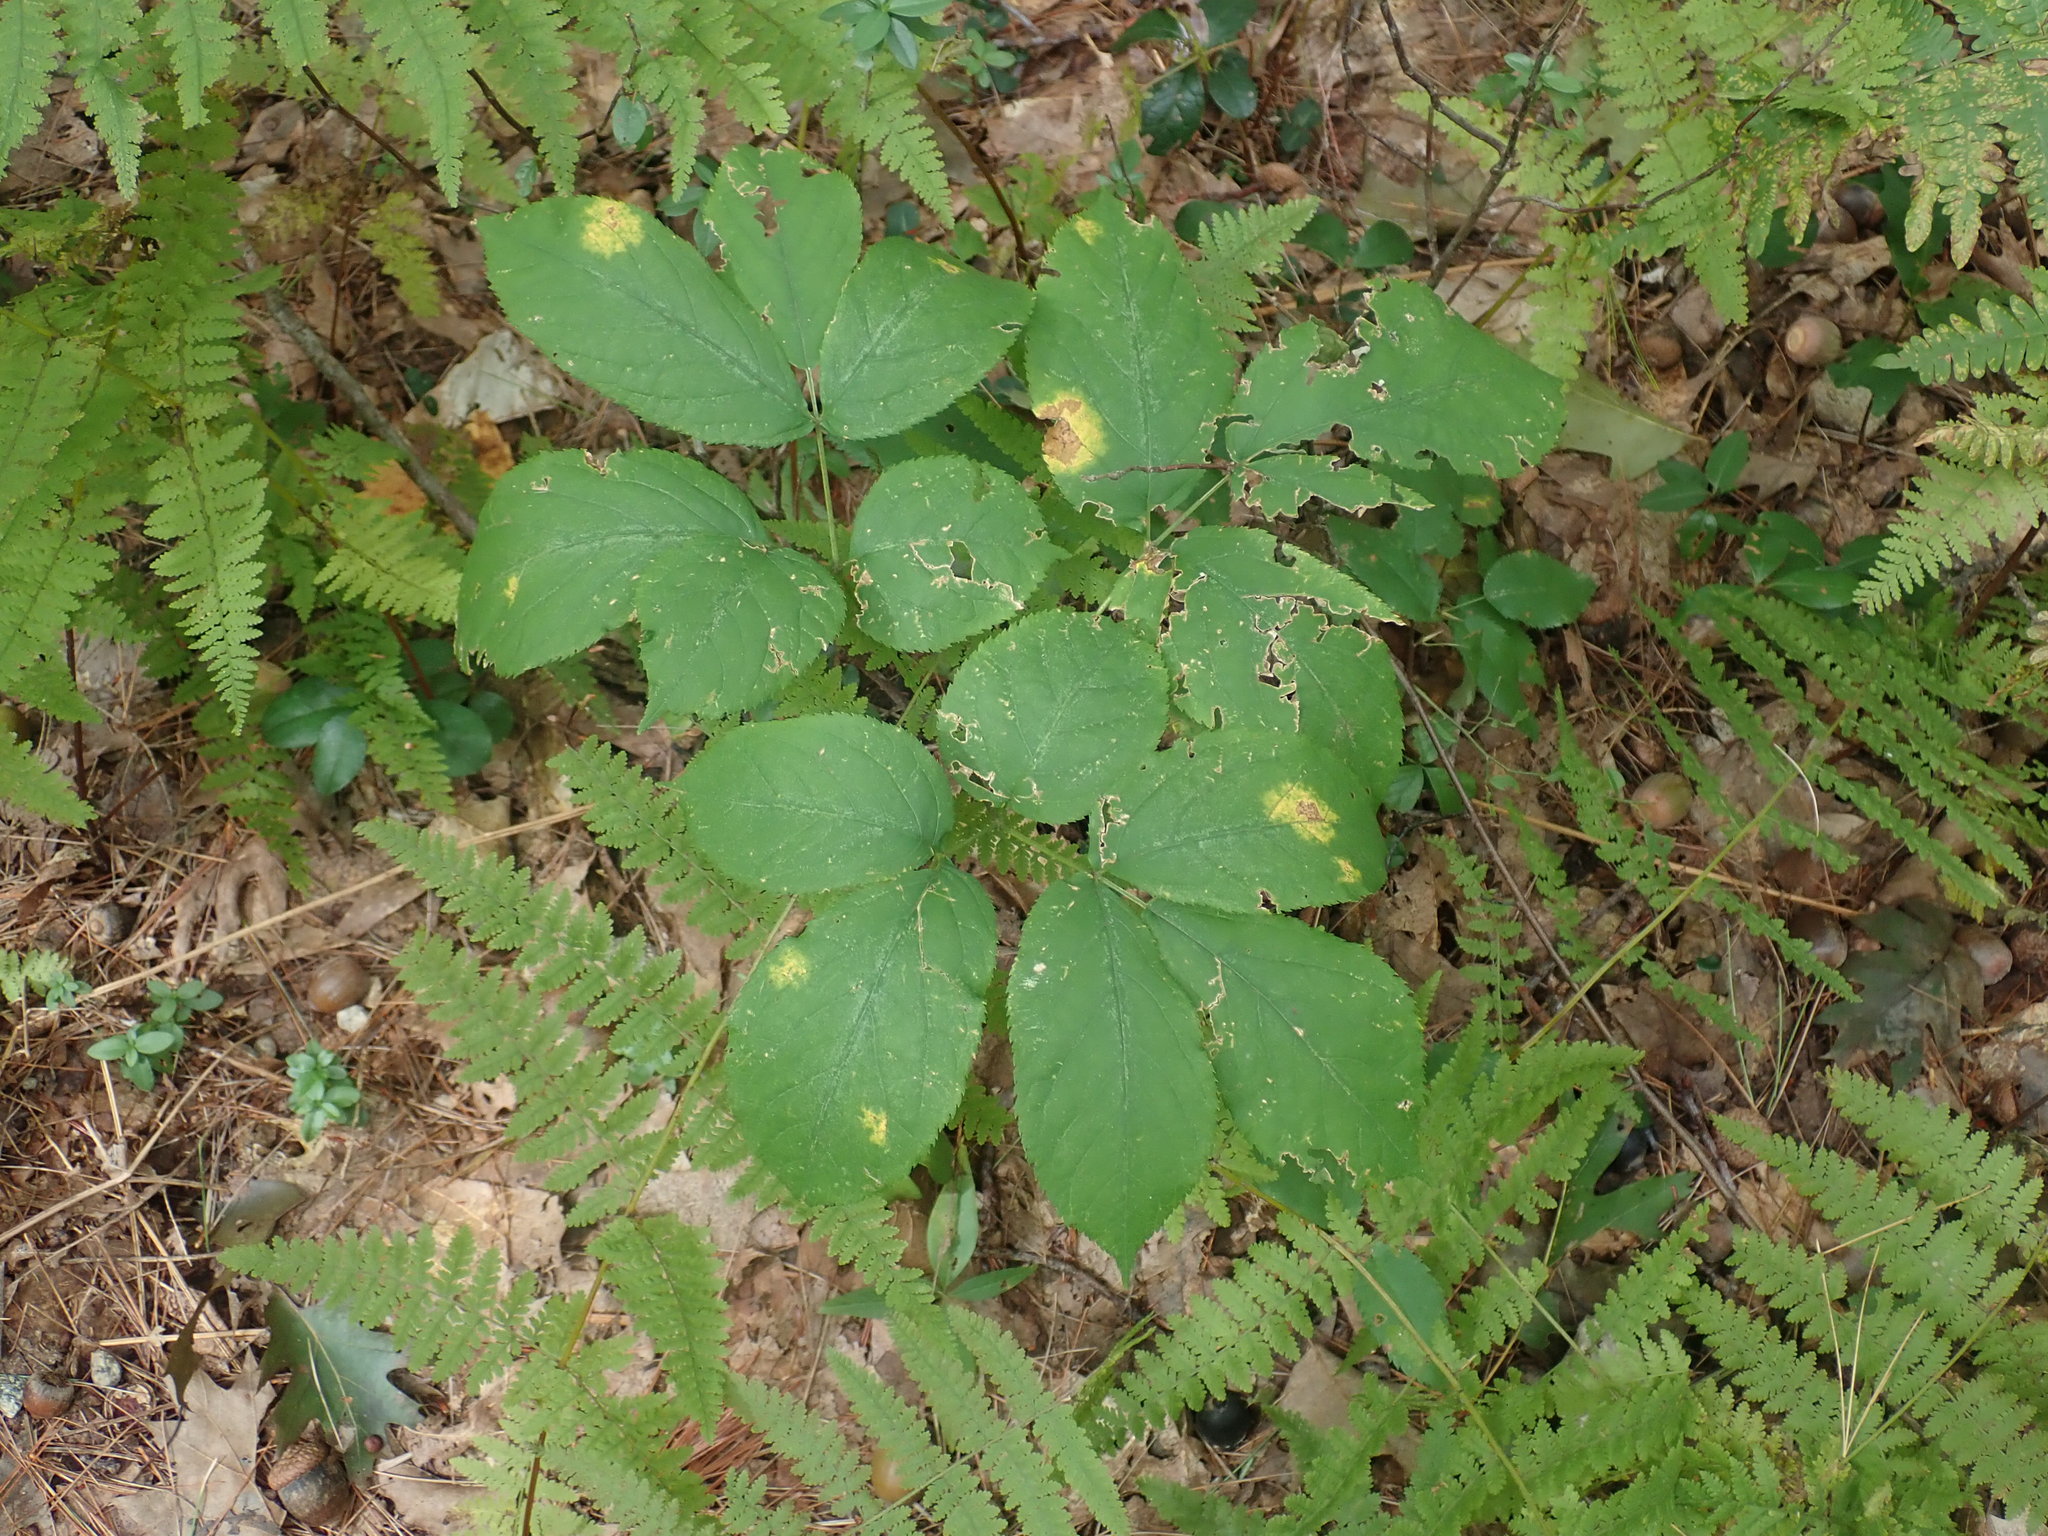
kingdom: Plantae
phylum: Tracheophyta
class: Magnoliopsida
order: Apiales
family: Araliaceae
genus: Aralia
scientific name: Aralia nudicaulis
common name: Wild sarsaparilla
